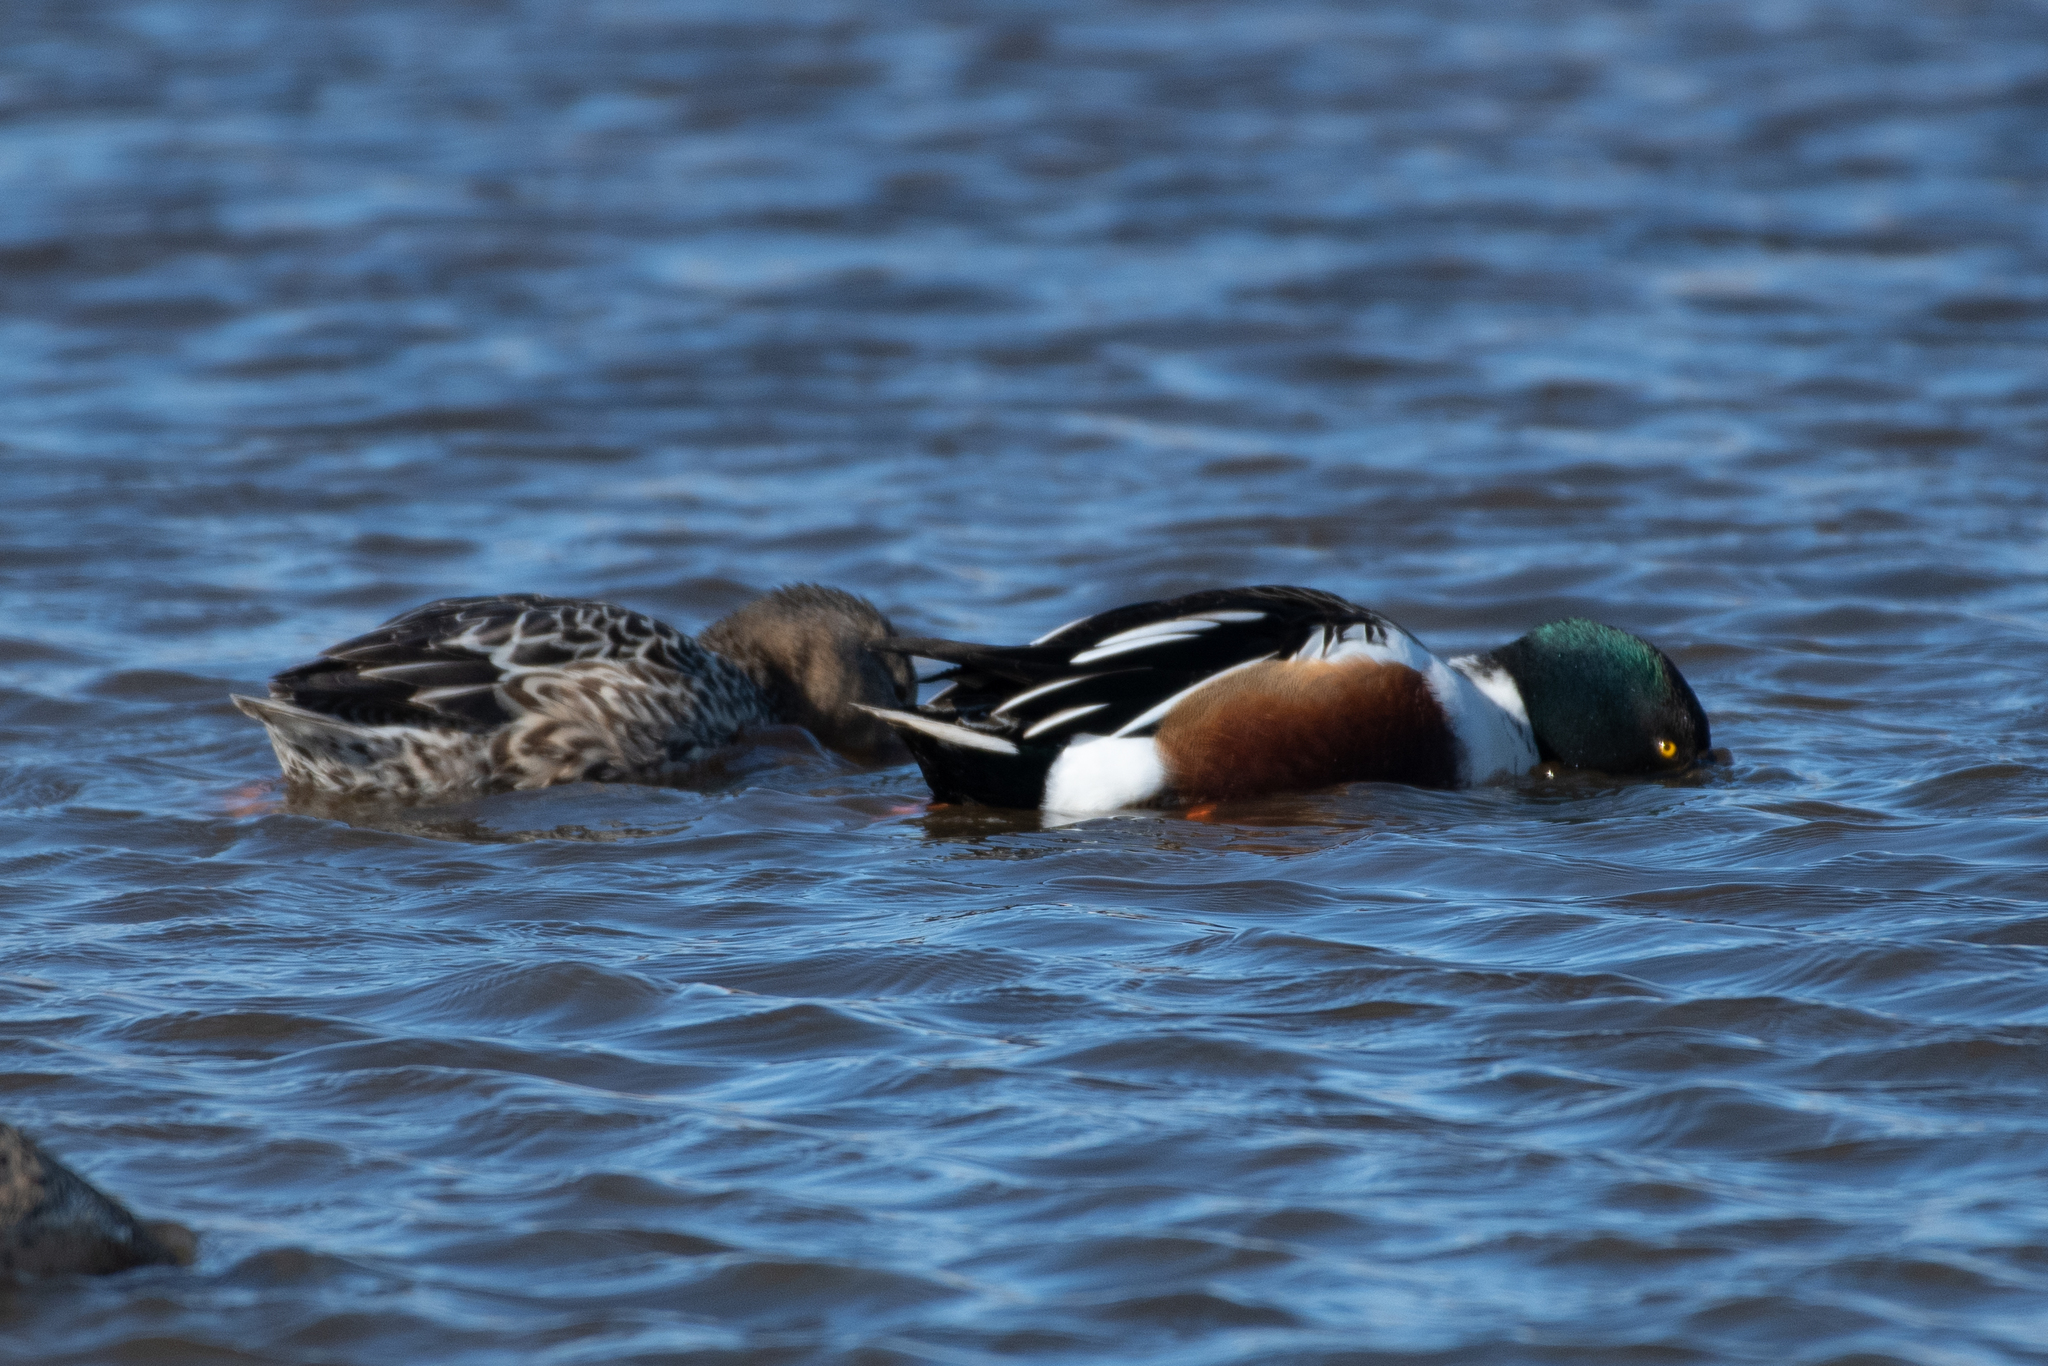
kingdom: Animalia
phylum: Chordata
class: Aves
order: Anseriformes
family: Anatidae
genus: Spatula
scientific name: Spatula clypeata
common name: Northern shoveler
